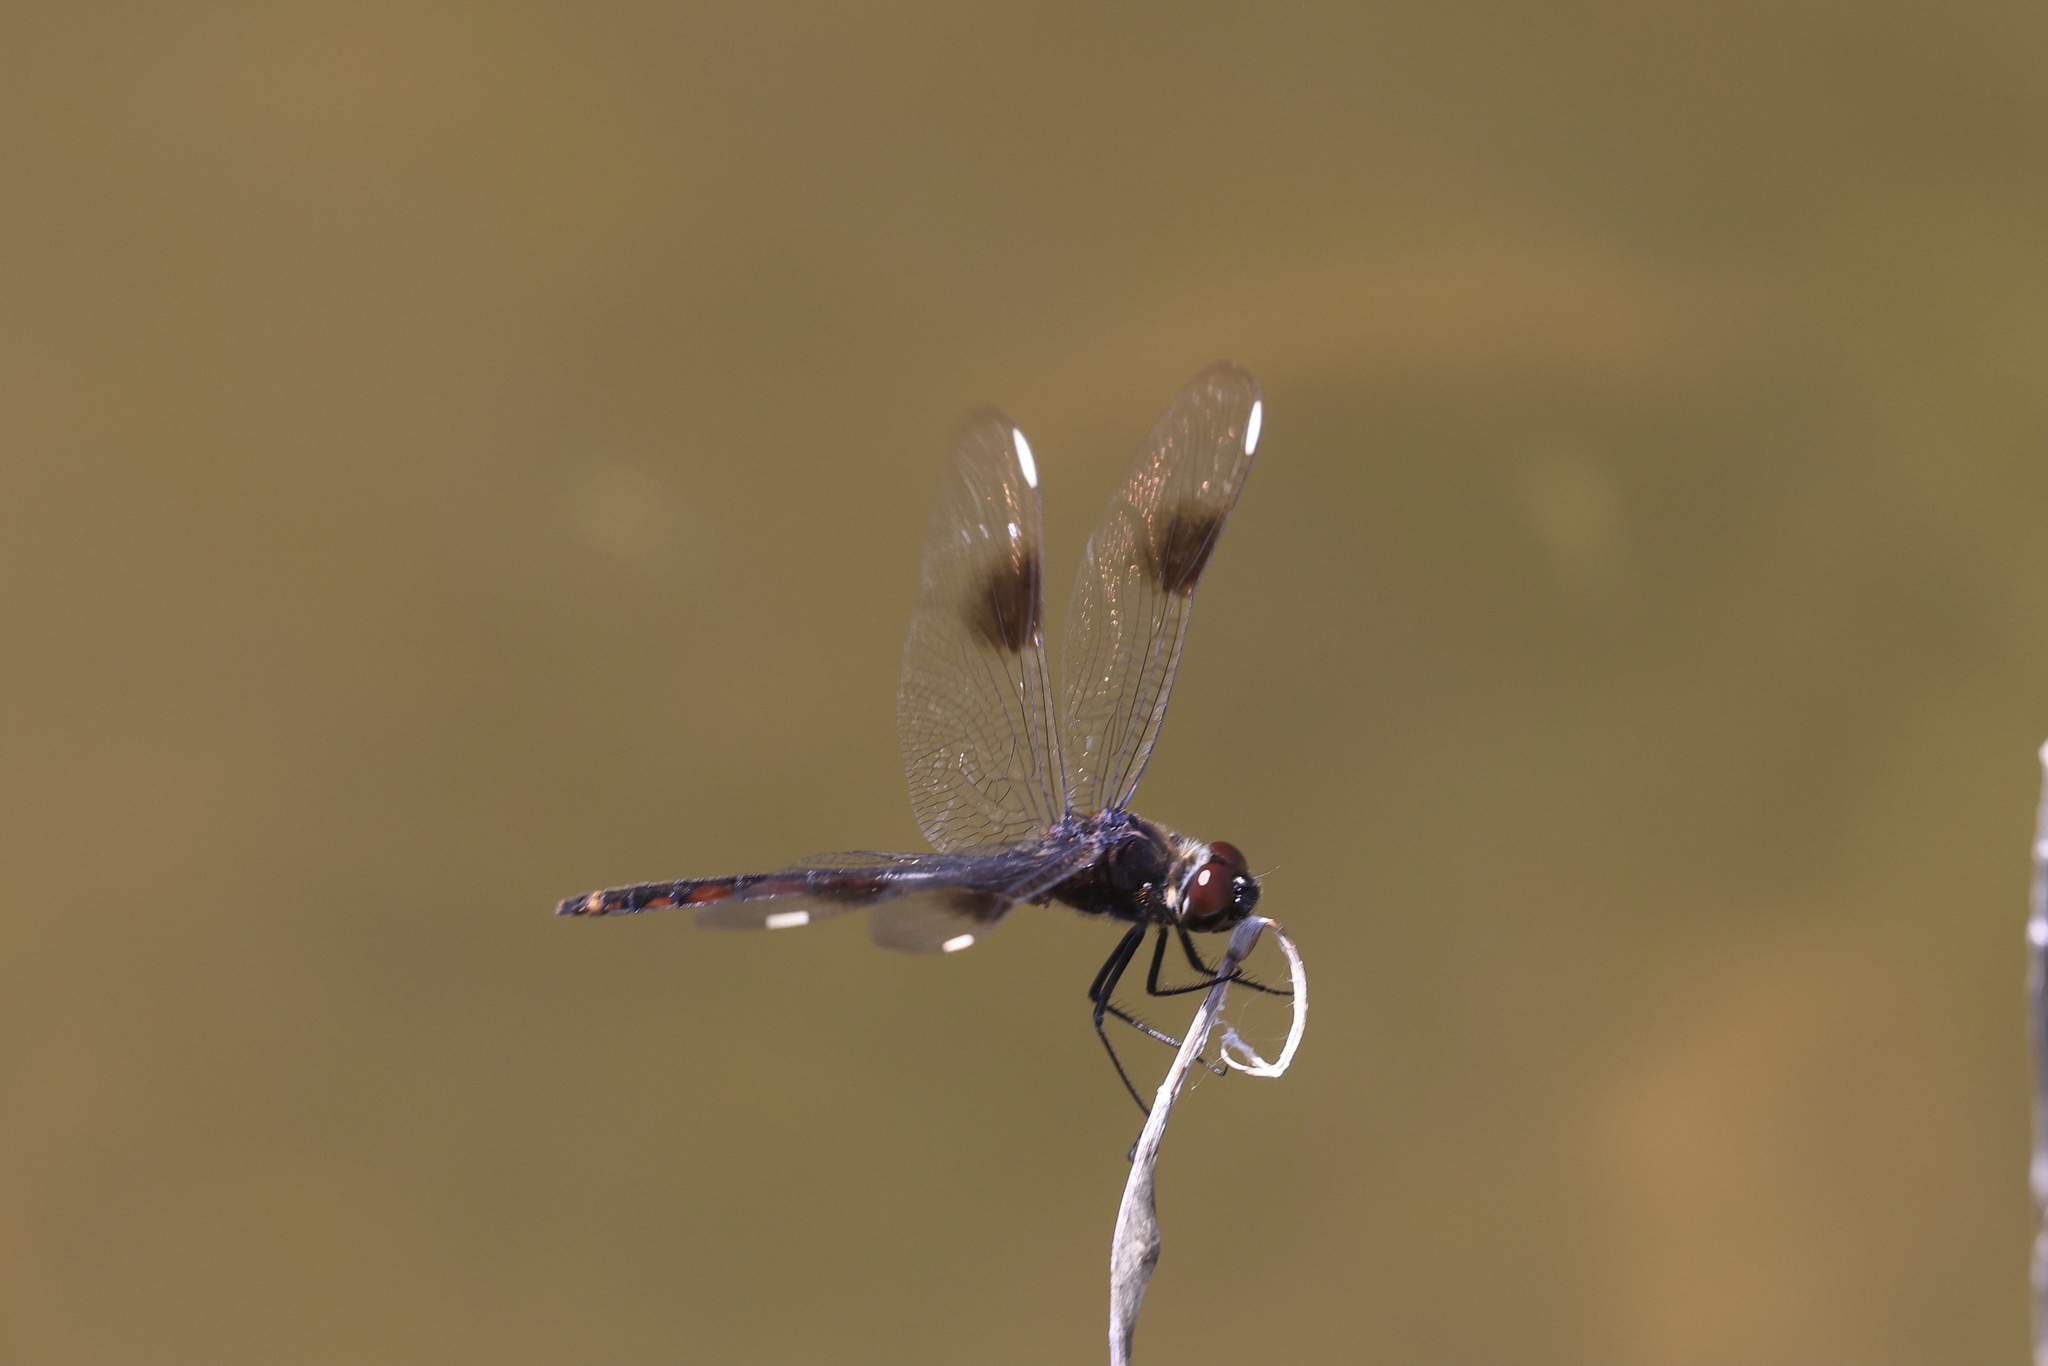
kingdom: Animalia
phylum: Arthropoda
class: Insecta
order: Odonata
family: Libellulidae
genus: Brachymesia
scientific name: Brachymesia gravida
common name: Four-spotted pennant
